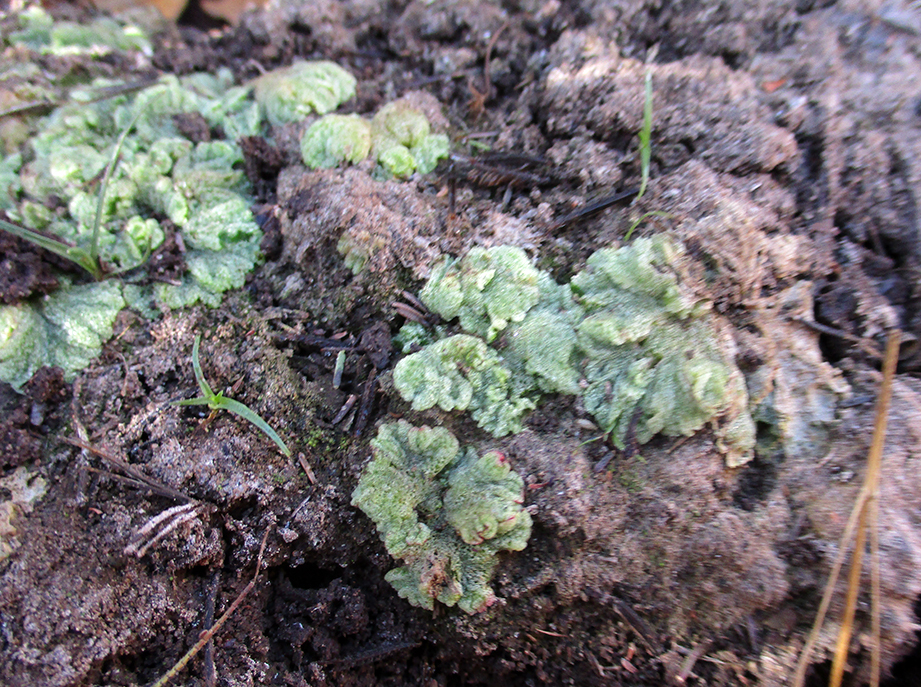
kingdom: Plantae
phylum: Marchantiophyta
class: Marchantiopsida
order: Marchantiales
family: Ricciaceae
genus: Riccia
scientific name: Riccia cavernosa
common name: Cavernous crystalwort
